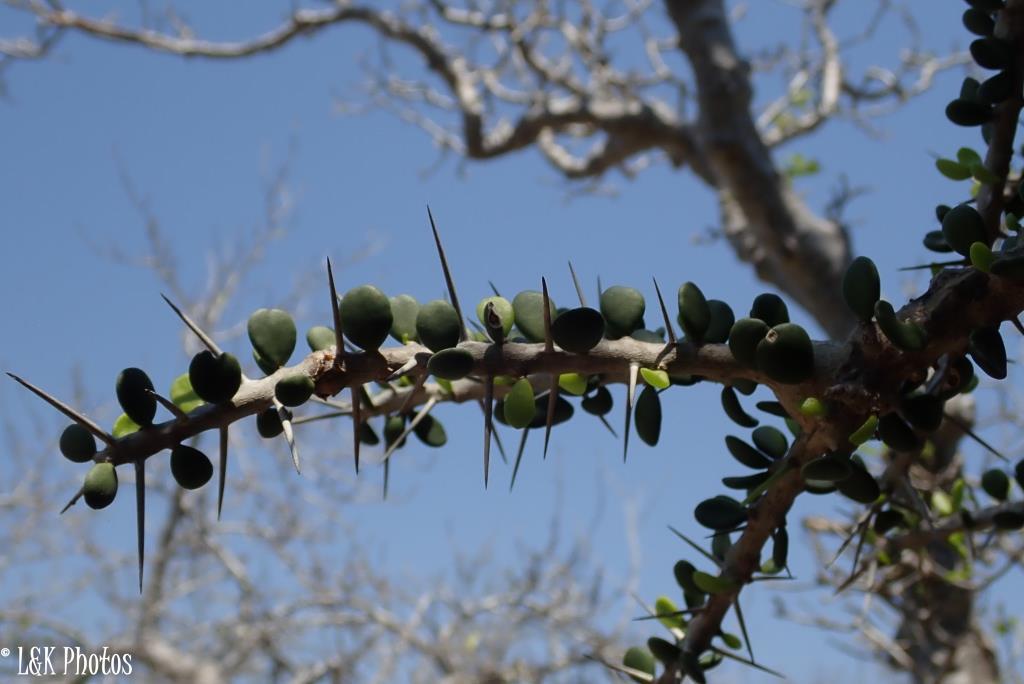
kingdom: Plantae
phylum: Tracheophyta
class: Magnoliopsida
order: Caryophyllales
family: Didiereaceae
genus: Alluaudia
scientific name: Alluaudia comosa
